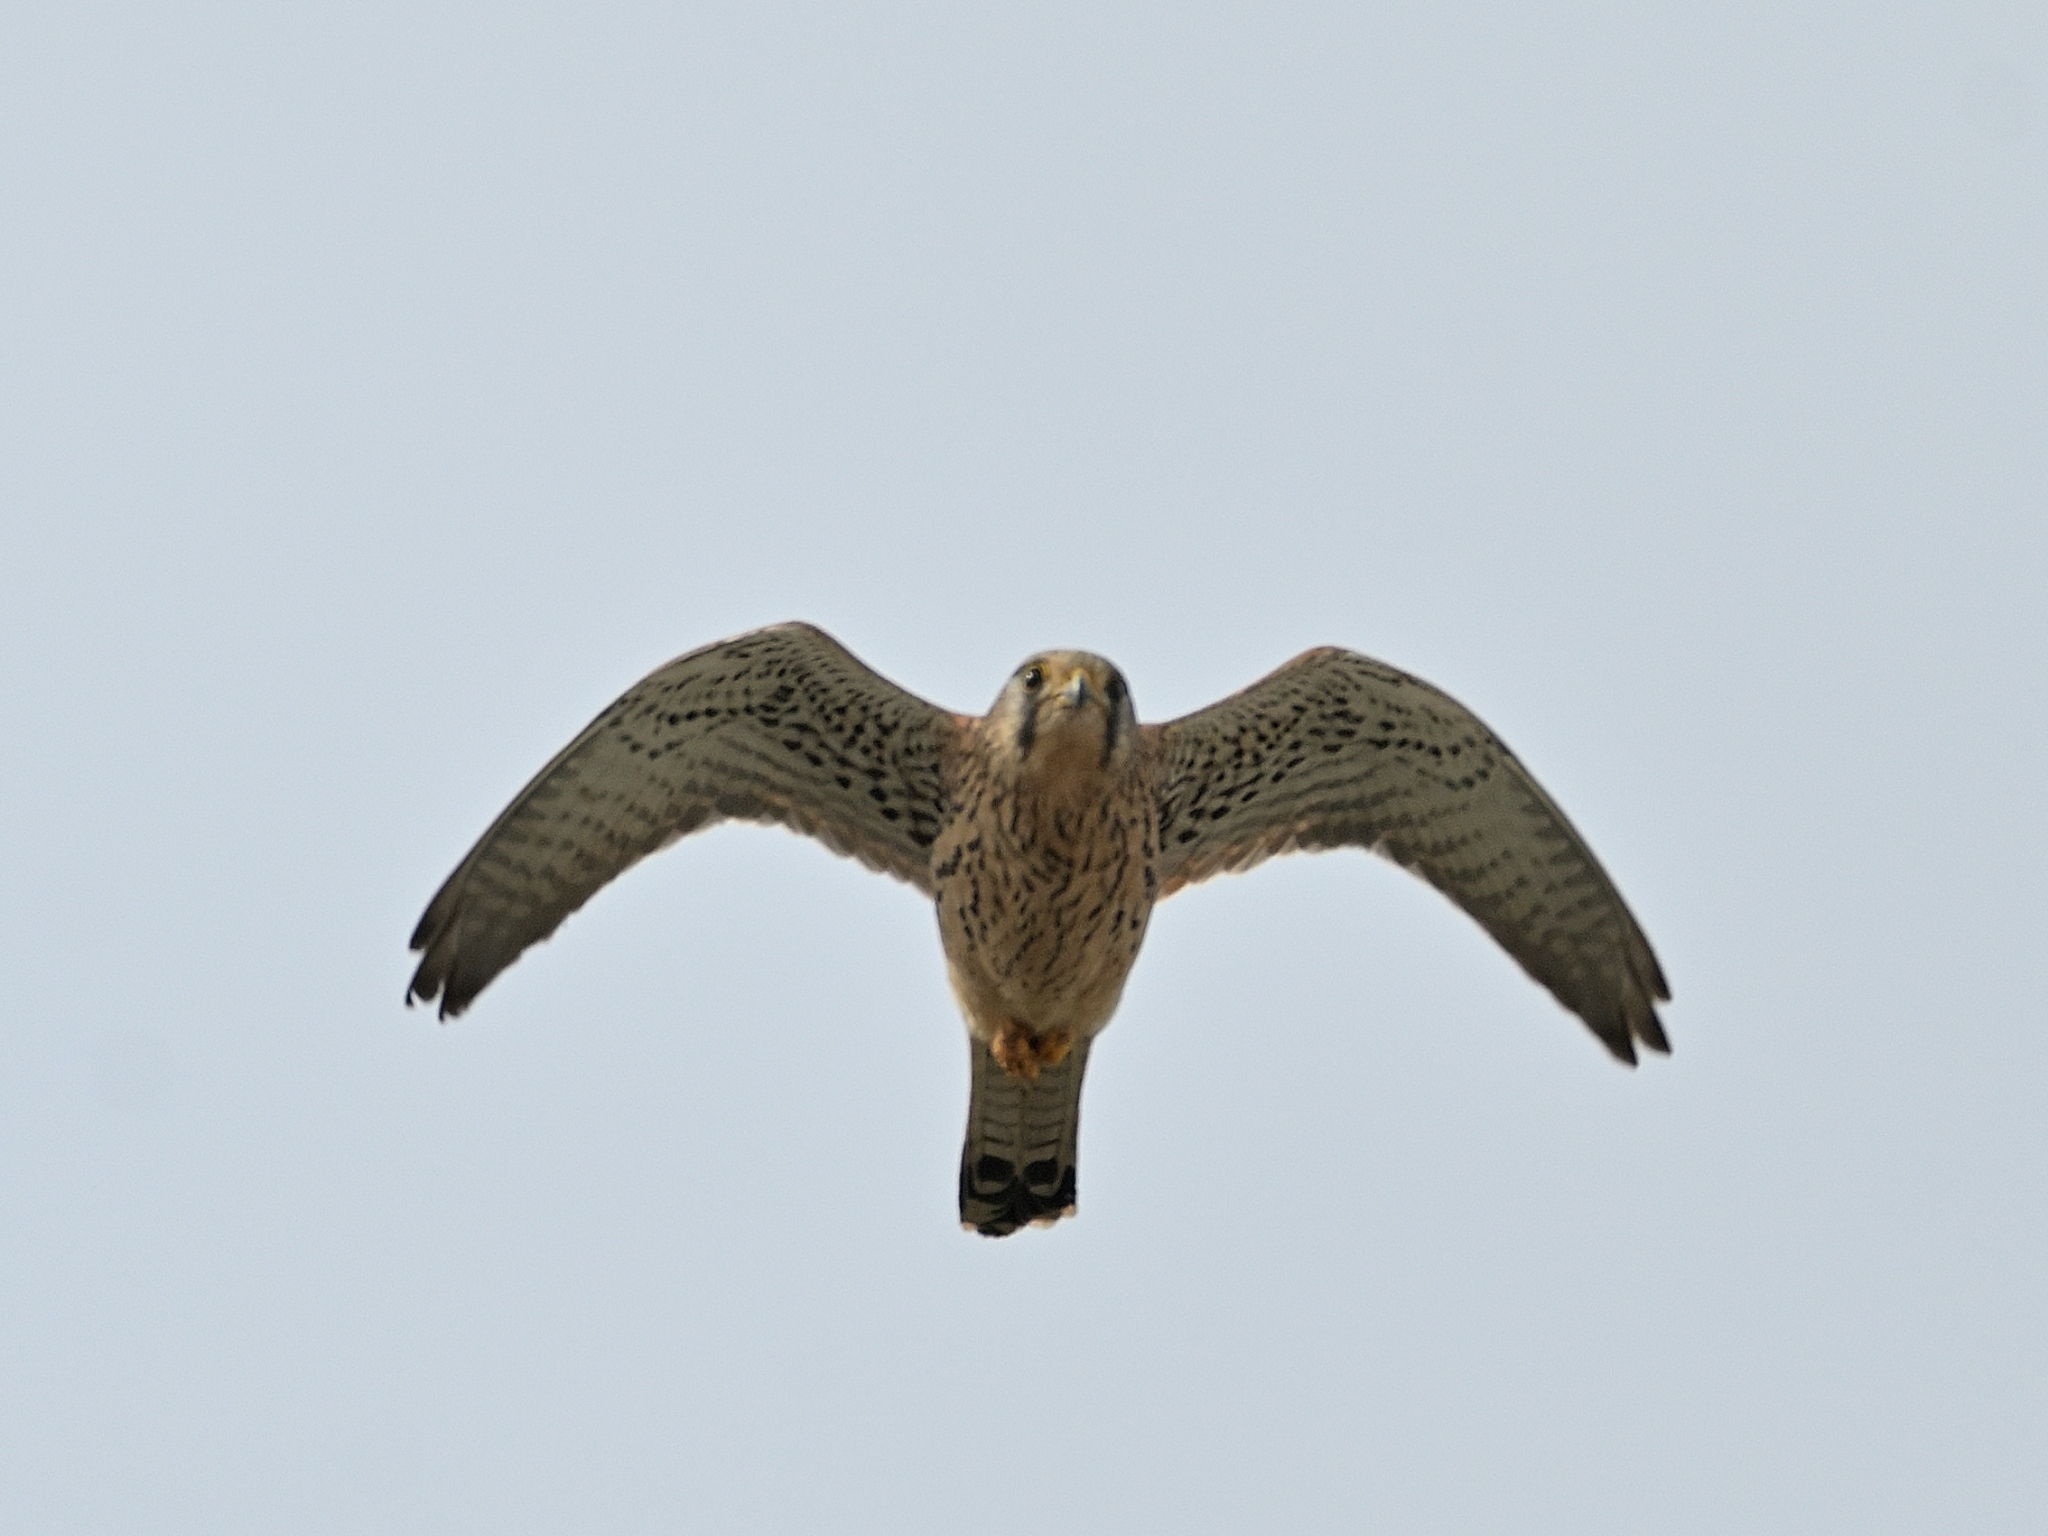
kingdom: Animalia
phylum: Chordata
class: Aves
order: Falconiformes
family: Falconidae
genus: Falco
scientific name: Falco tinnunculus
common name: Common kestrel
